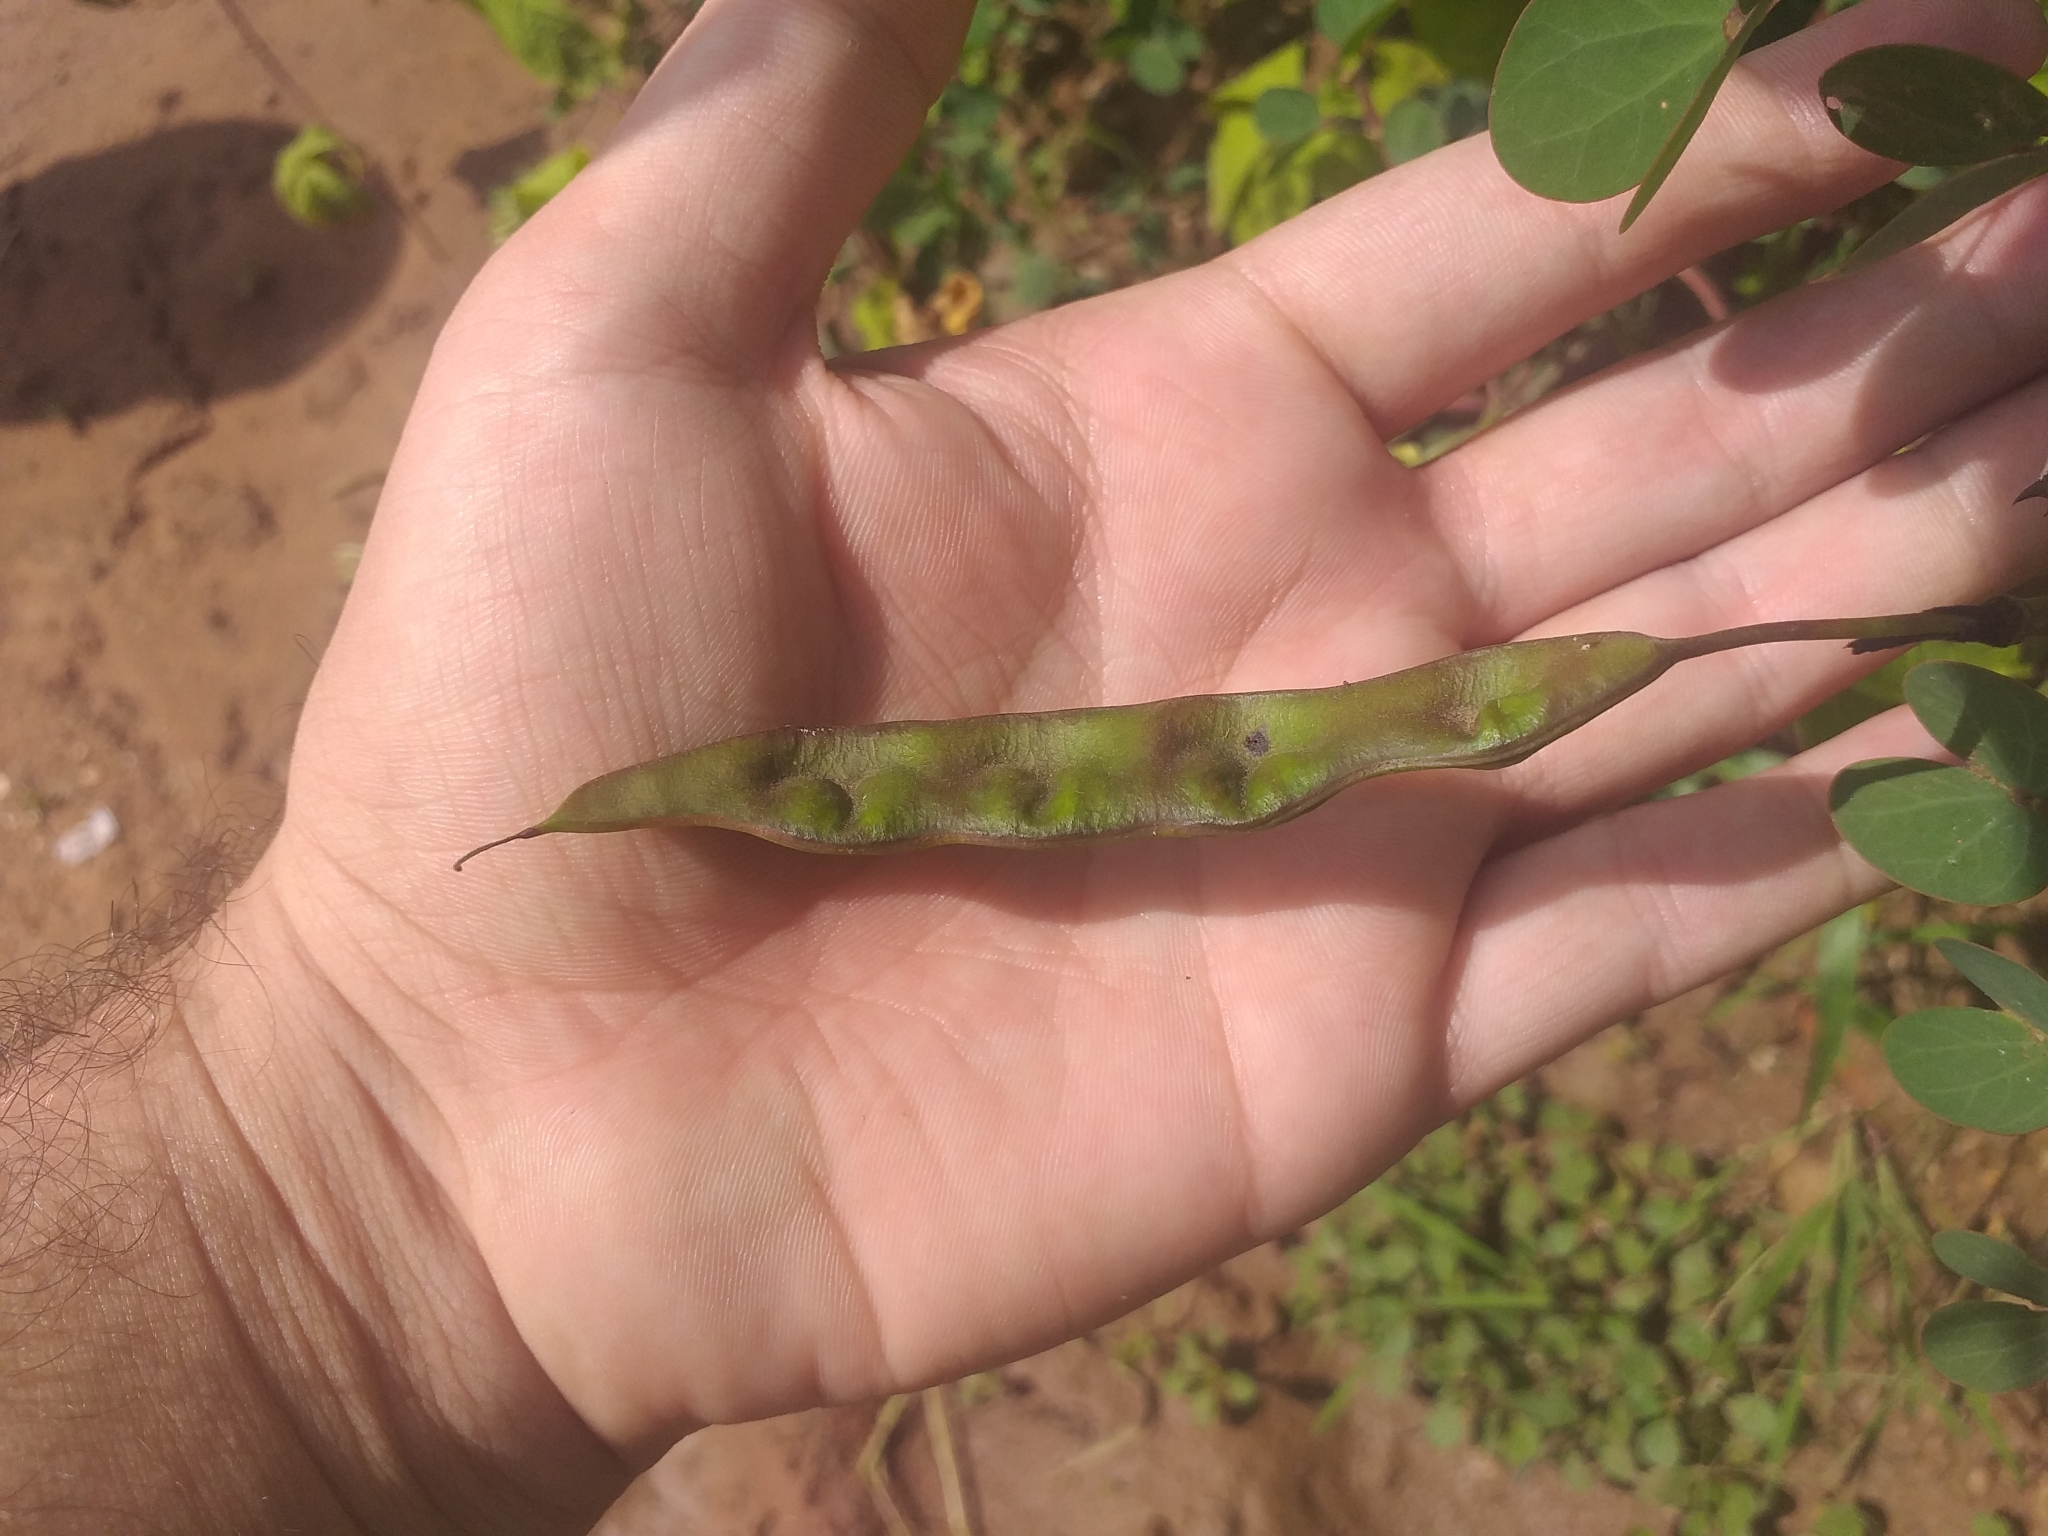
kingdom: Plantae
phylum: Tracheophyta
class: Magnoliopsida
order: Fabales
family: Fabaceae
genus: Bauhinia
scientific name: Bauhinia bauhinioides
